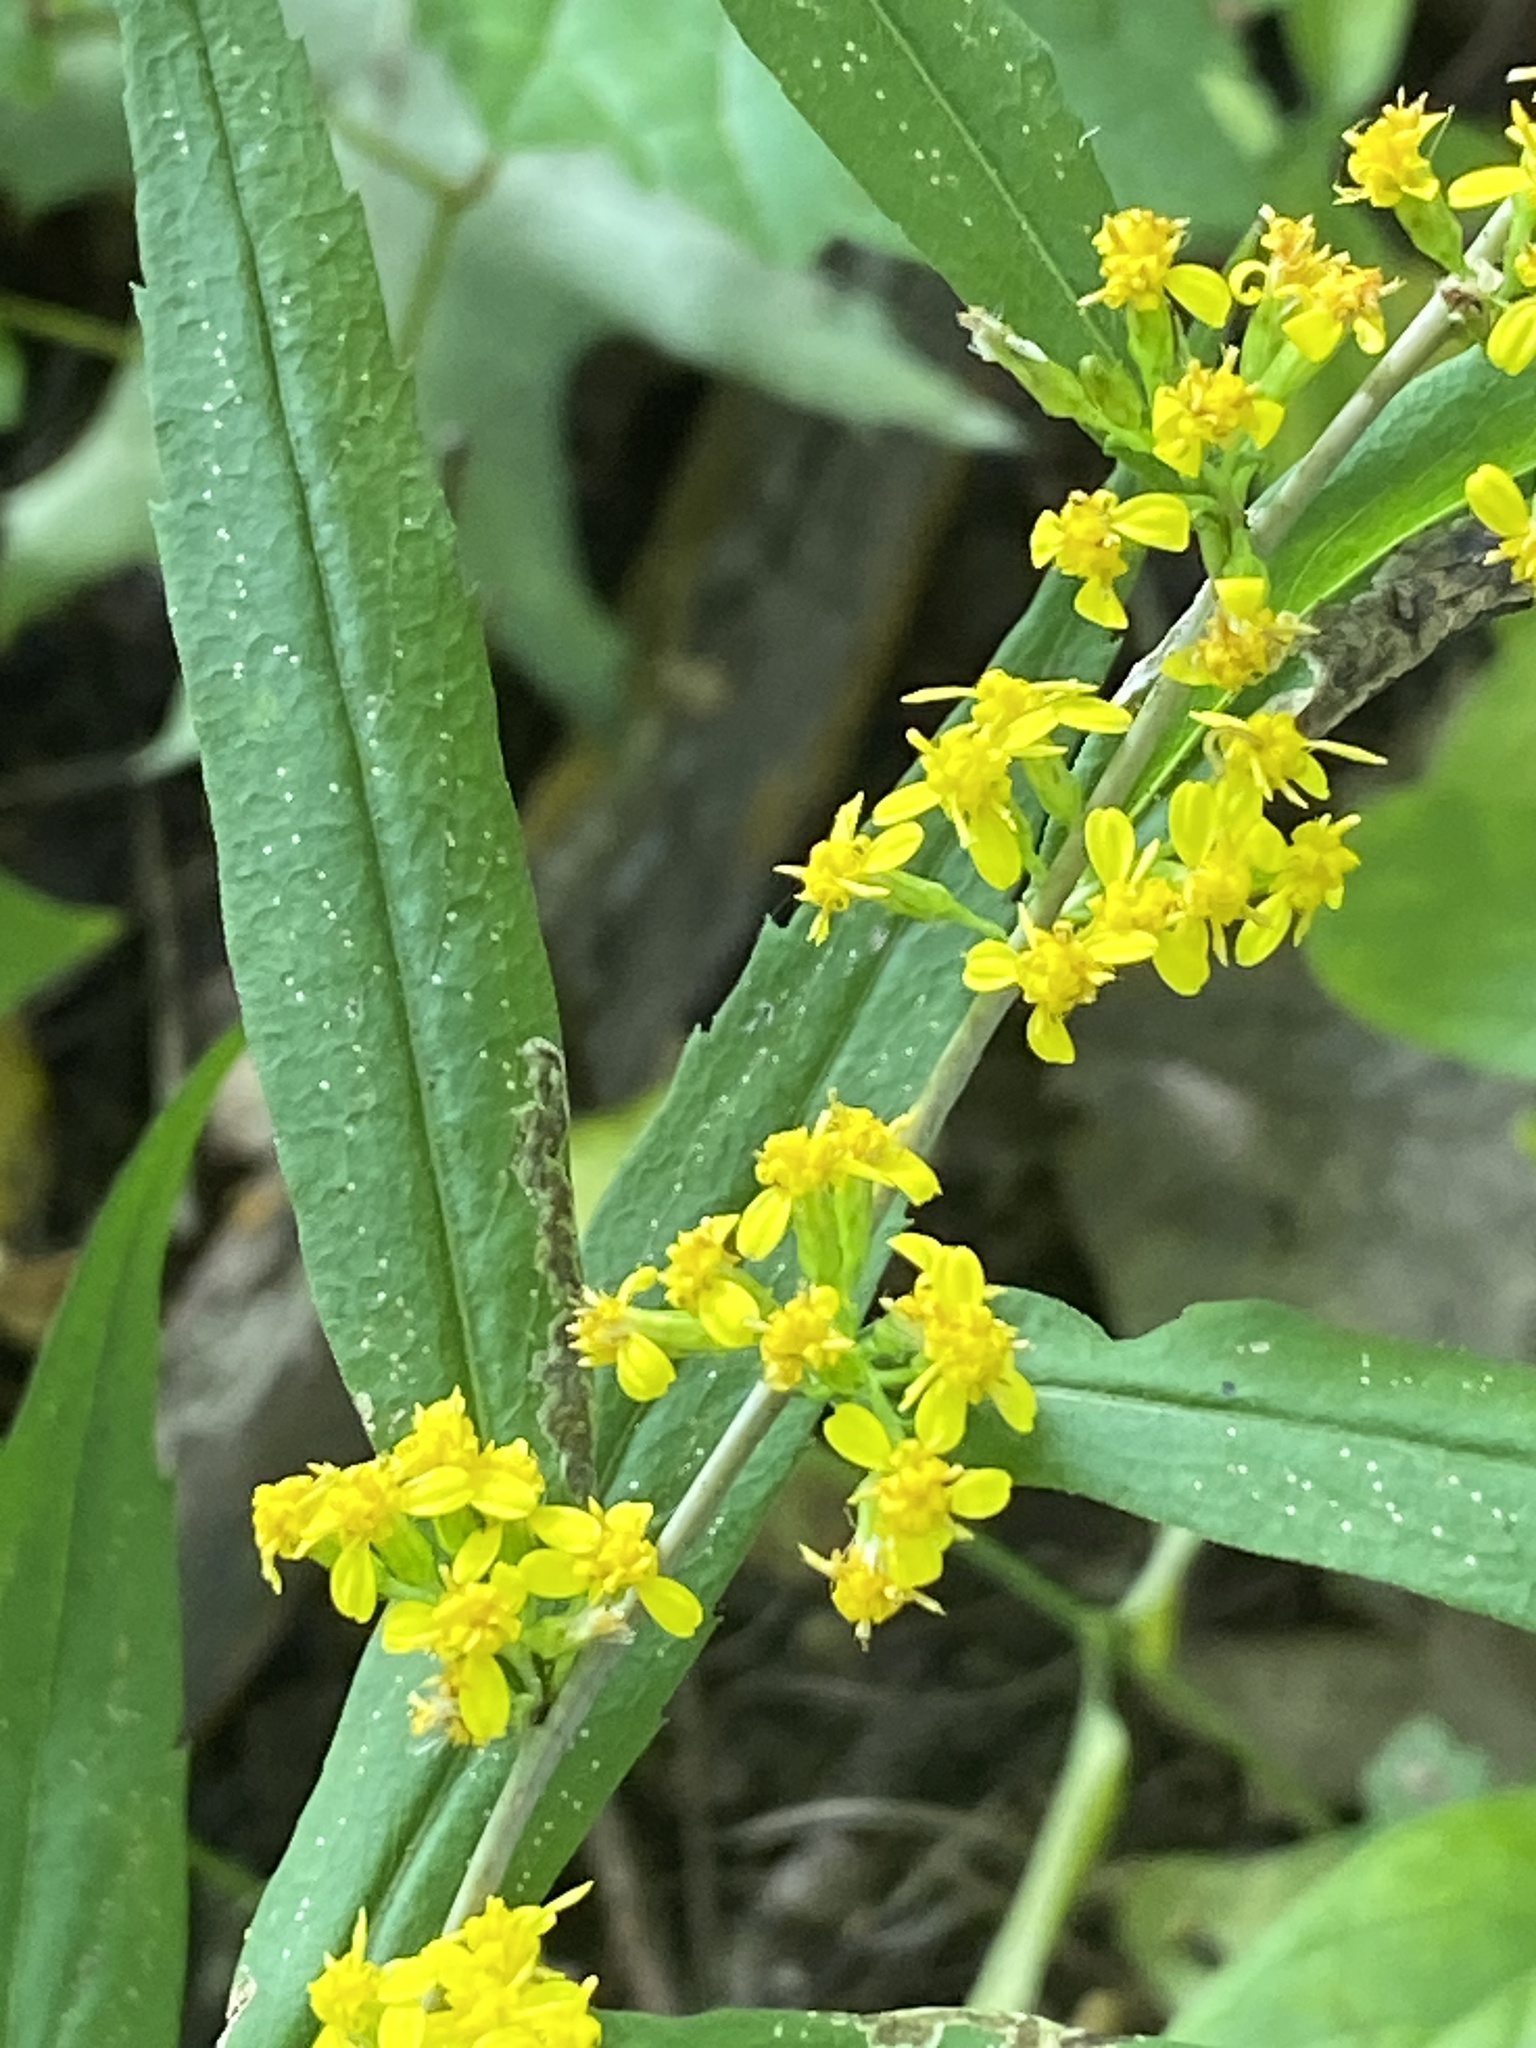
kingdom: Plantae
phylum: Tracheophyta
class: Magnoliopsida
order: Asterales
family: Asteraceae
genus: Solidago
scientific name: Solidago caesia
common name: Woodland goldenrod
